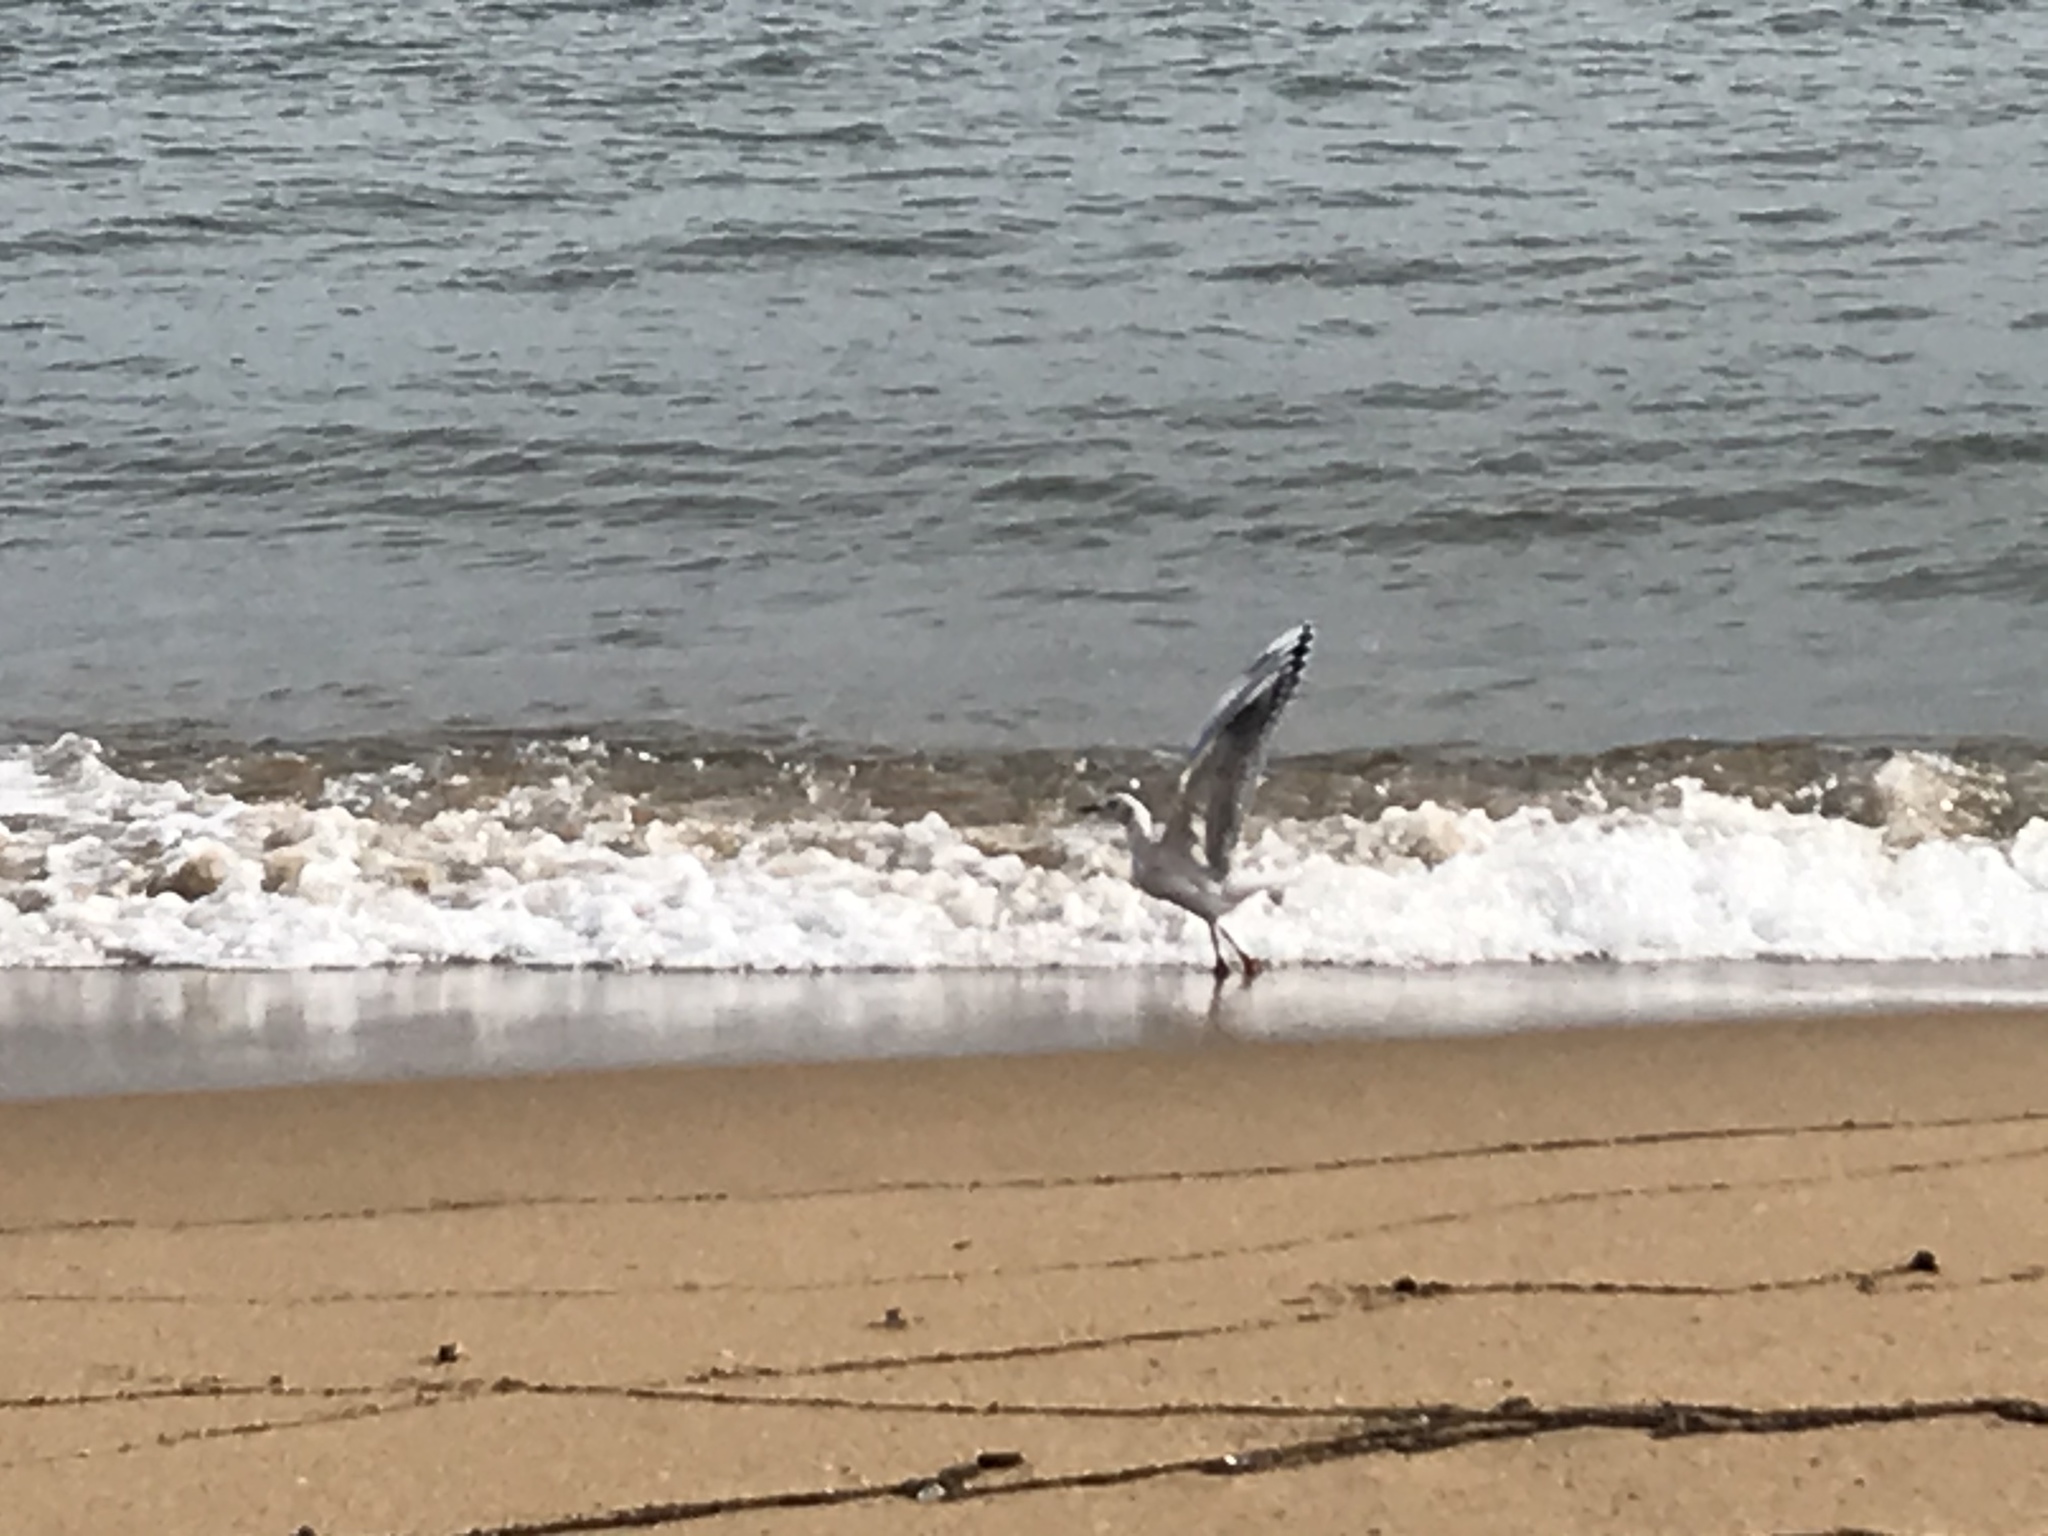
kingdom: Animalia
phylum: Chordata
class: Aves
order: Charadriiformes
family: Laridae
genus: Chroicocephalus
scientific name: Chroicocephalus maculipennis
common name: Brown-hooded gull
